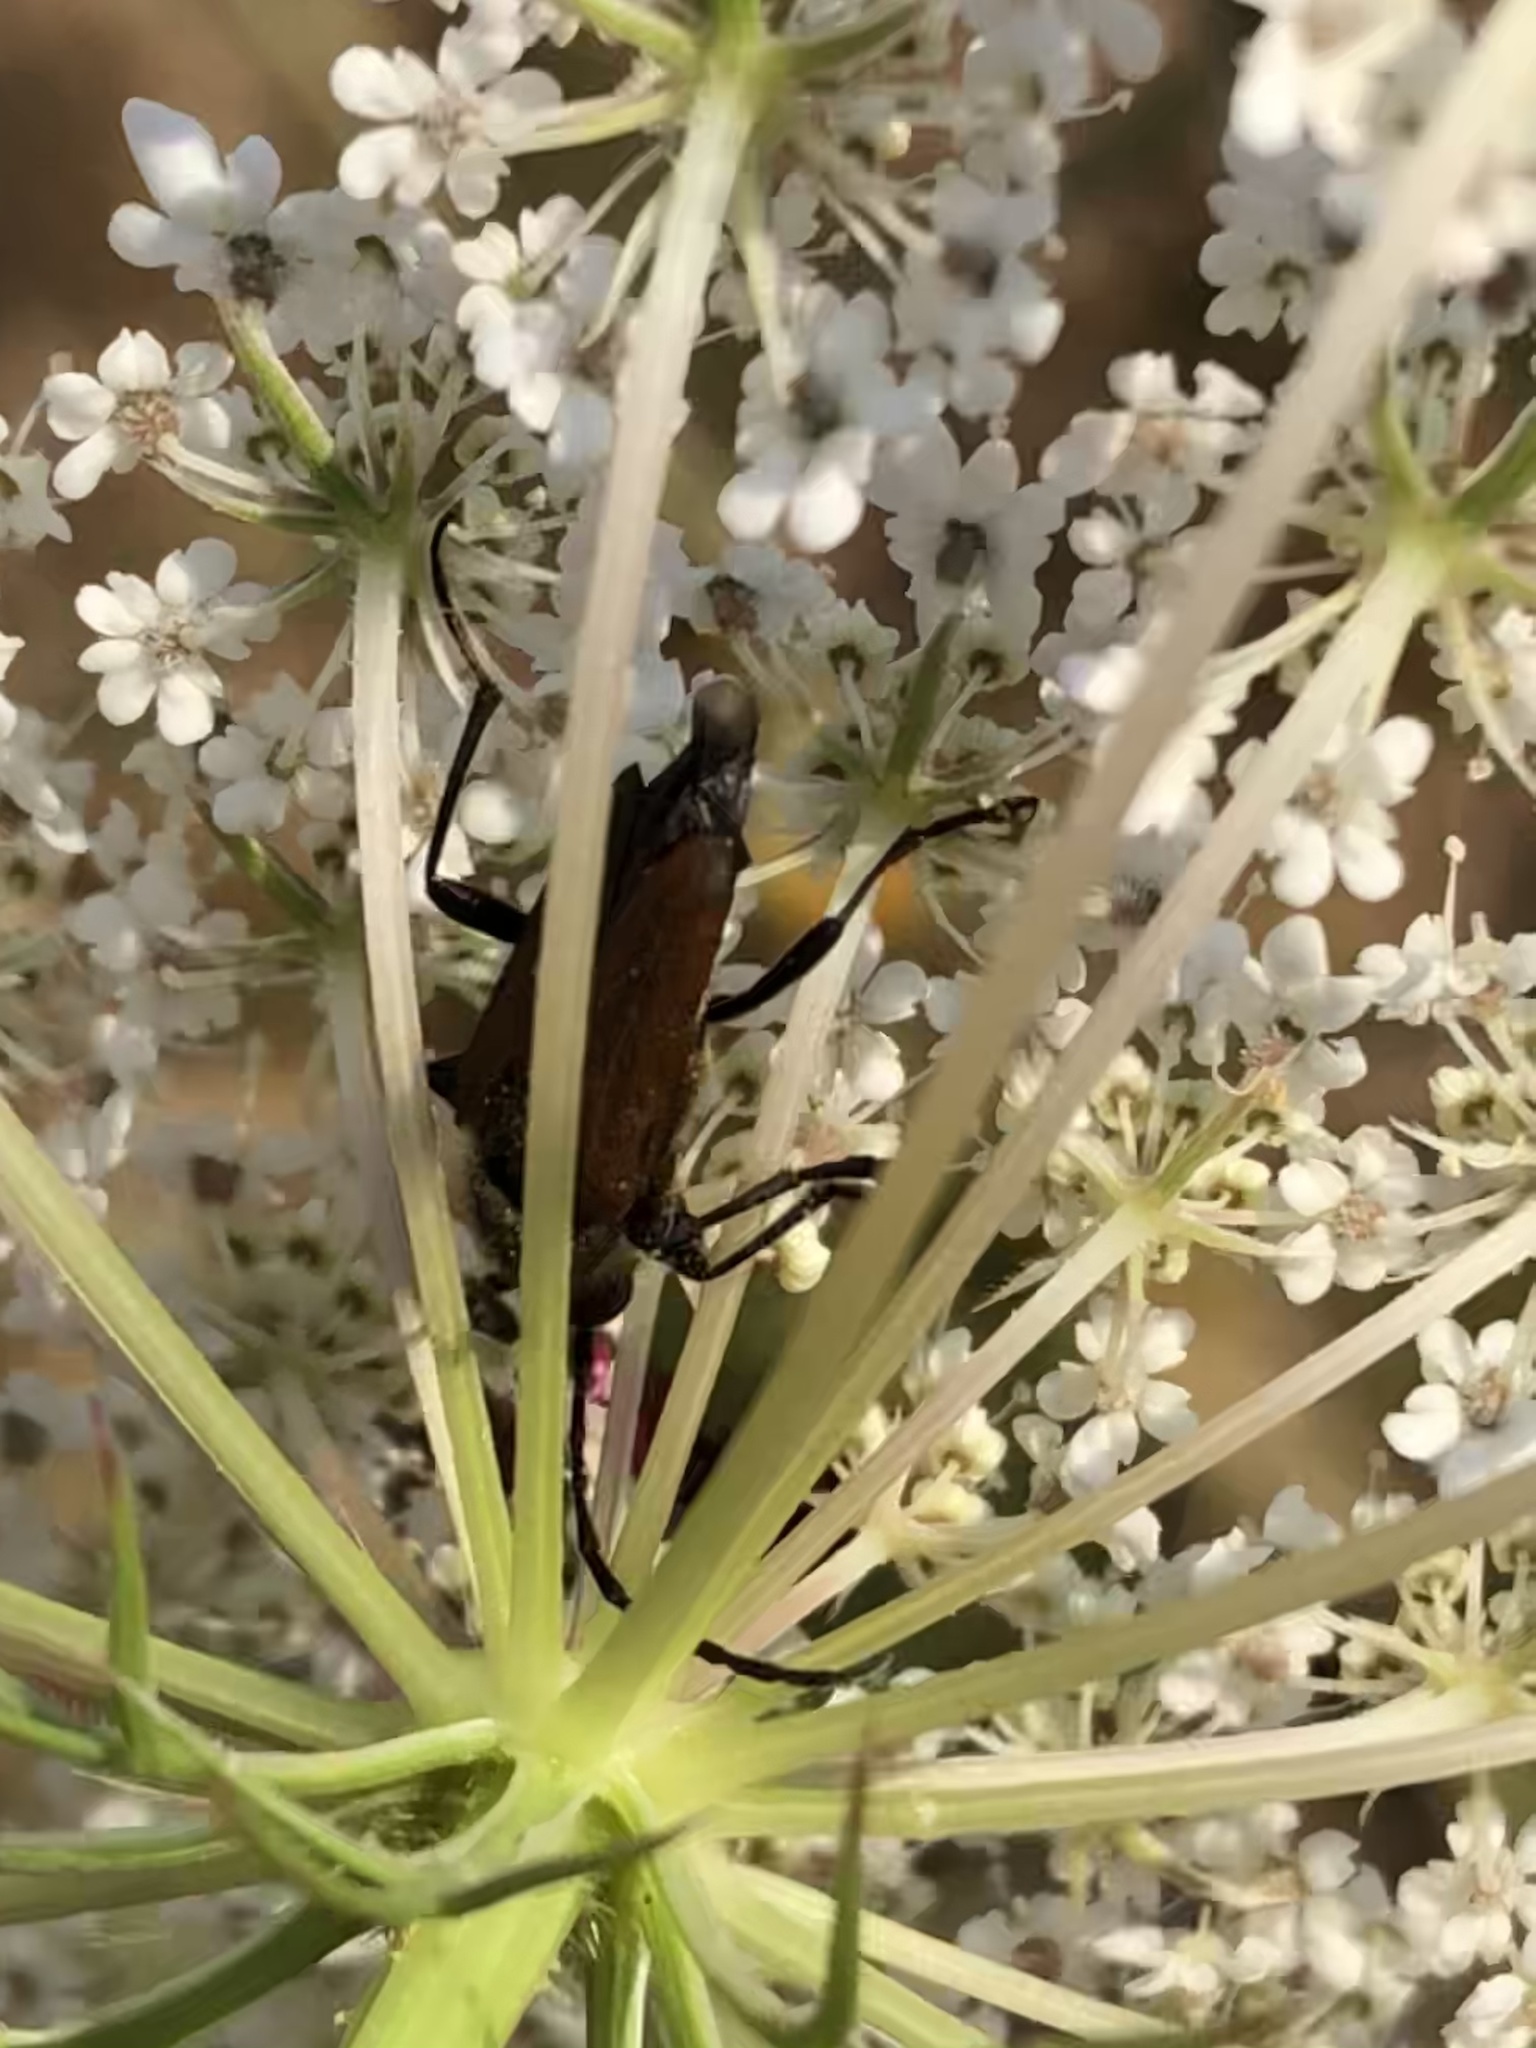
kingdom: Animalia
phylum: Arthropoda
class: Insecta
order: Coleoptera
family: Cerambycidae
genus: Anastrangalia
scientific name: Anastrangalia sanguinea
